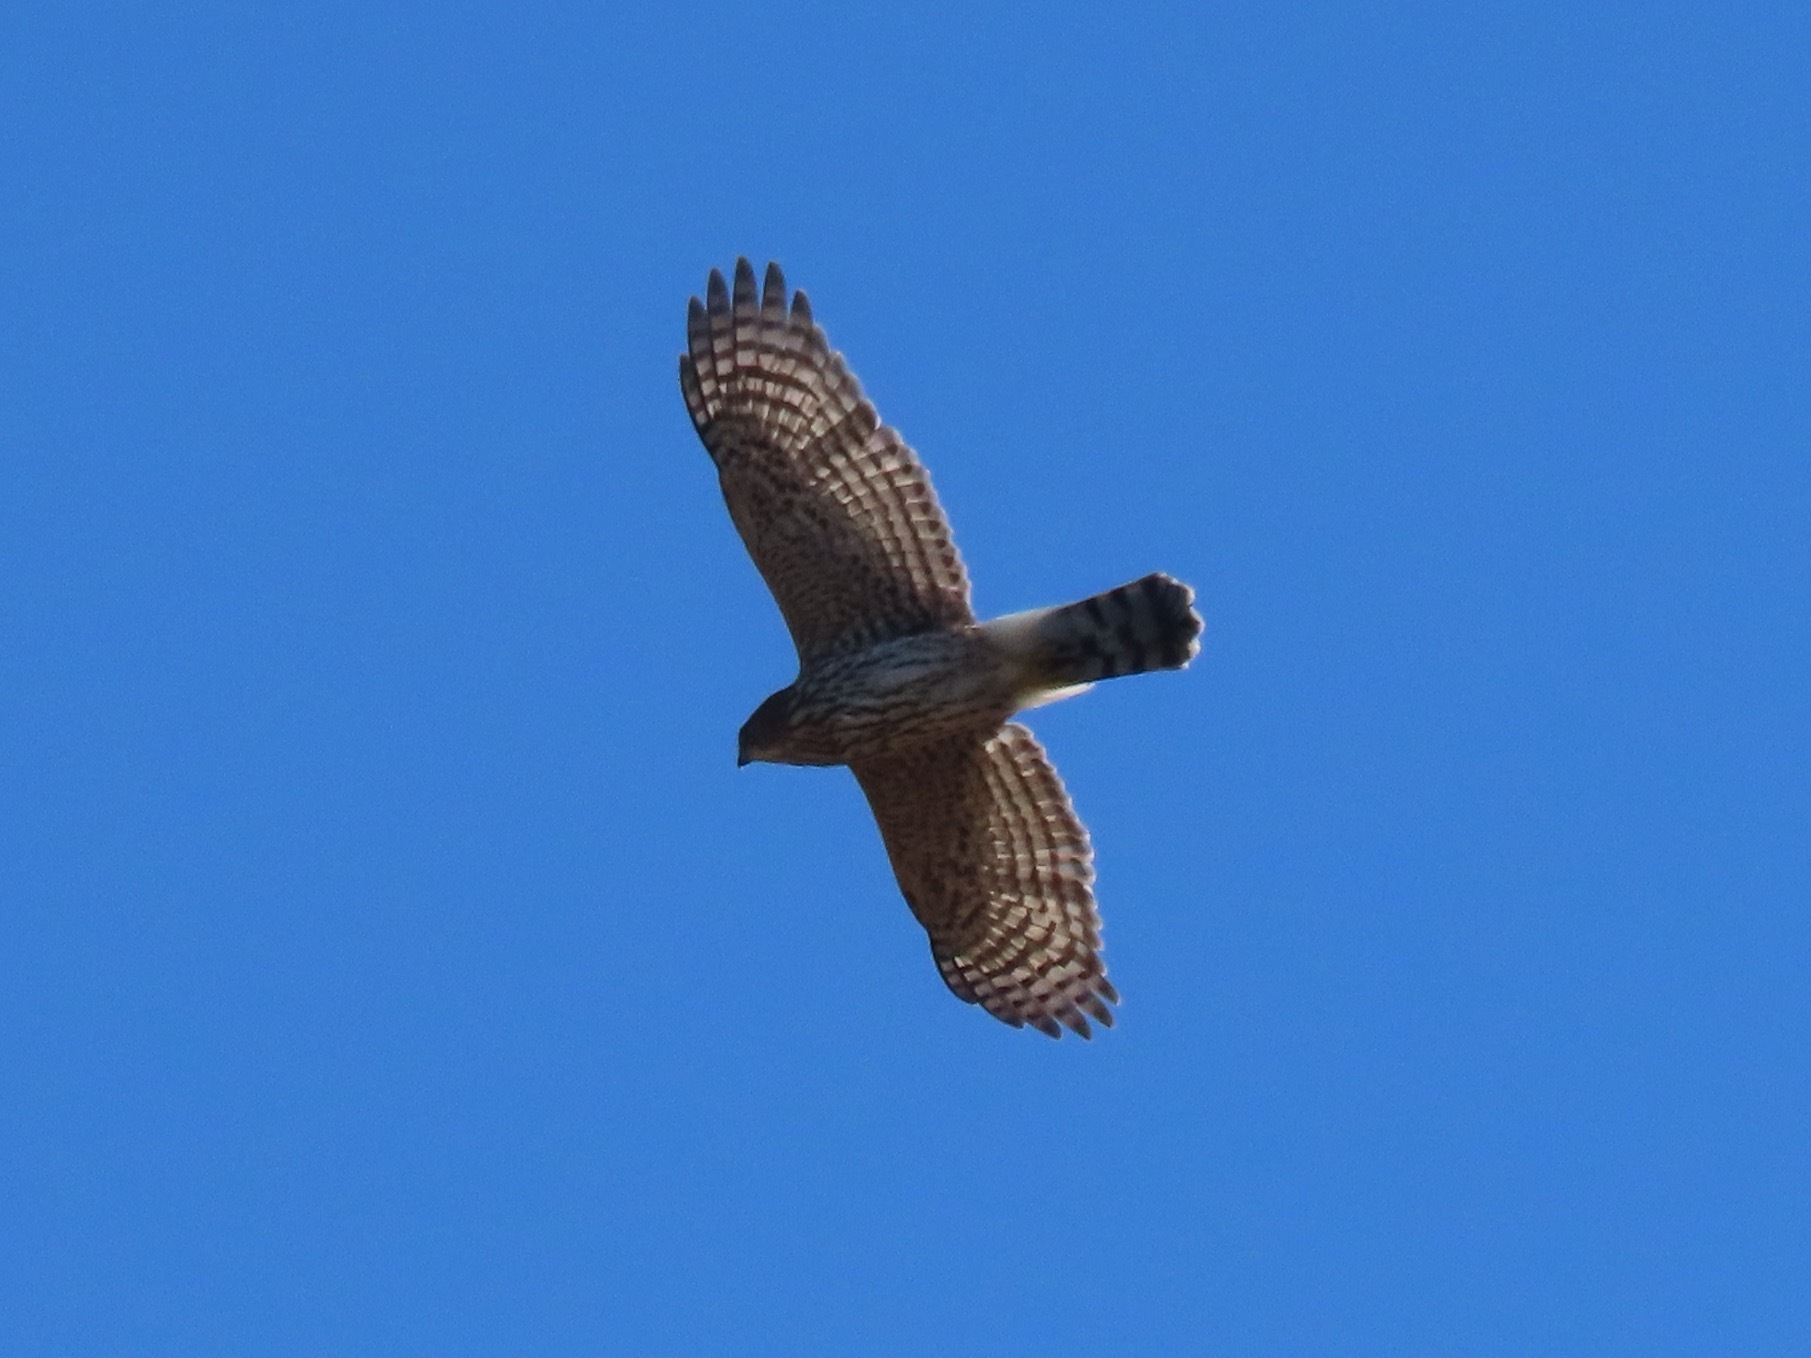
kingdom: Animalia
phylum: Chordata
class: Aves
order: Accipitriformes
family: Accipitridae
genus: Accipiter
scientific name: Accipiter cooperii
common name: Cooper's hawk
